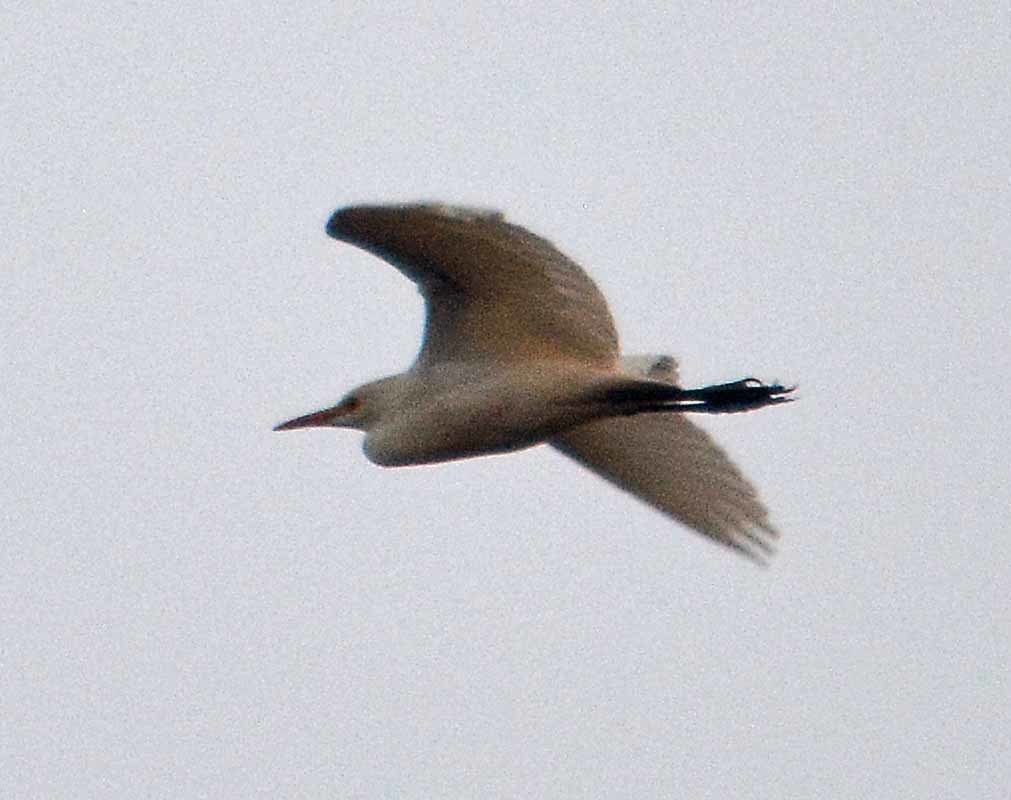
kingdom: Animalia
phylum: Chordata
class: Aves
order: Pelecaniformes
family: Ardeidae
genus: Bubulcus
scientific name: Bubulcus ibis
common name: Cattle egret
